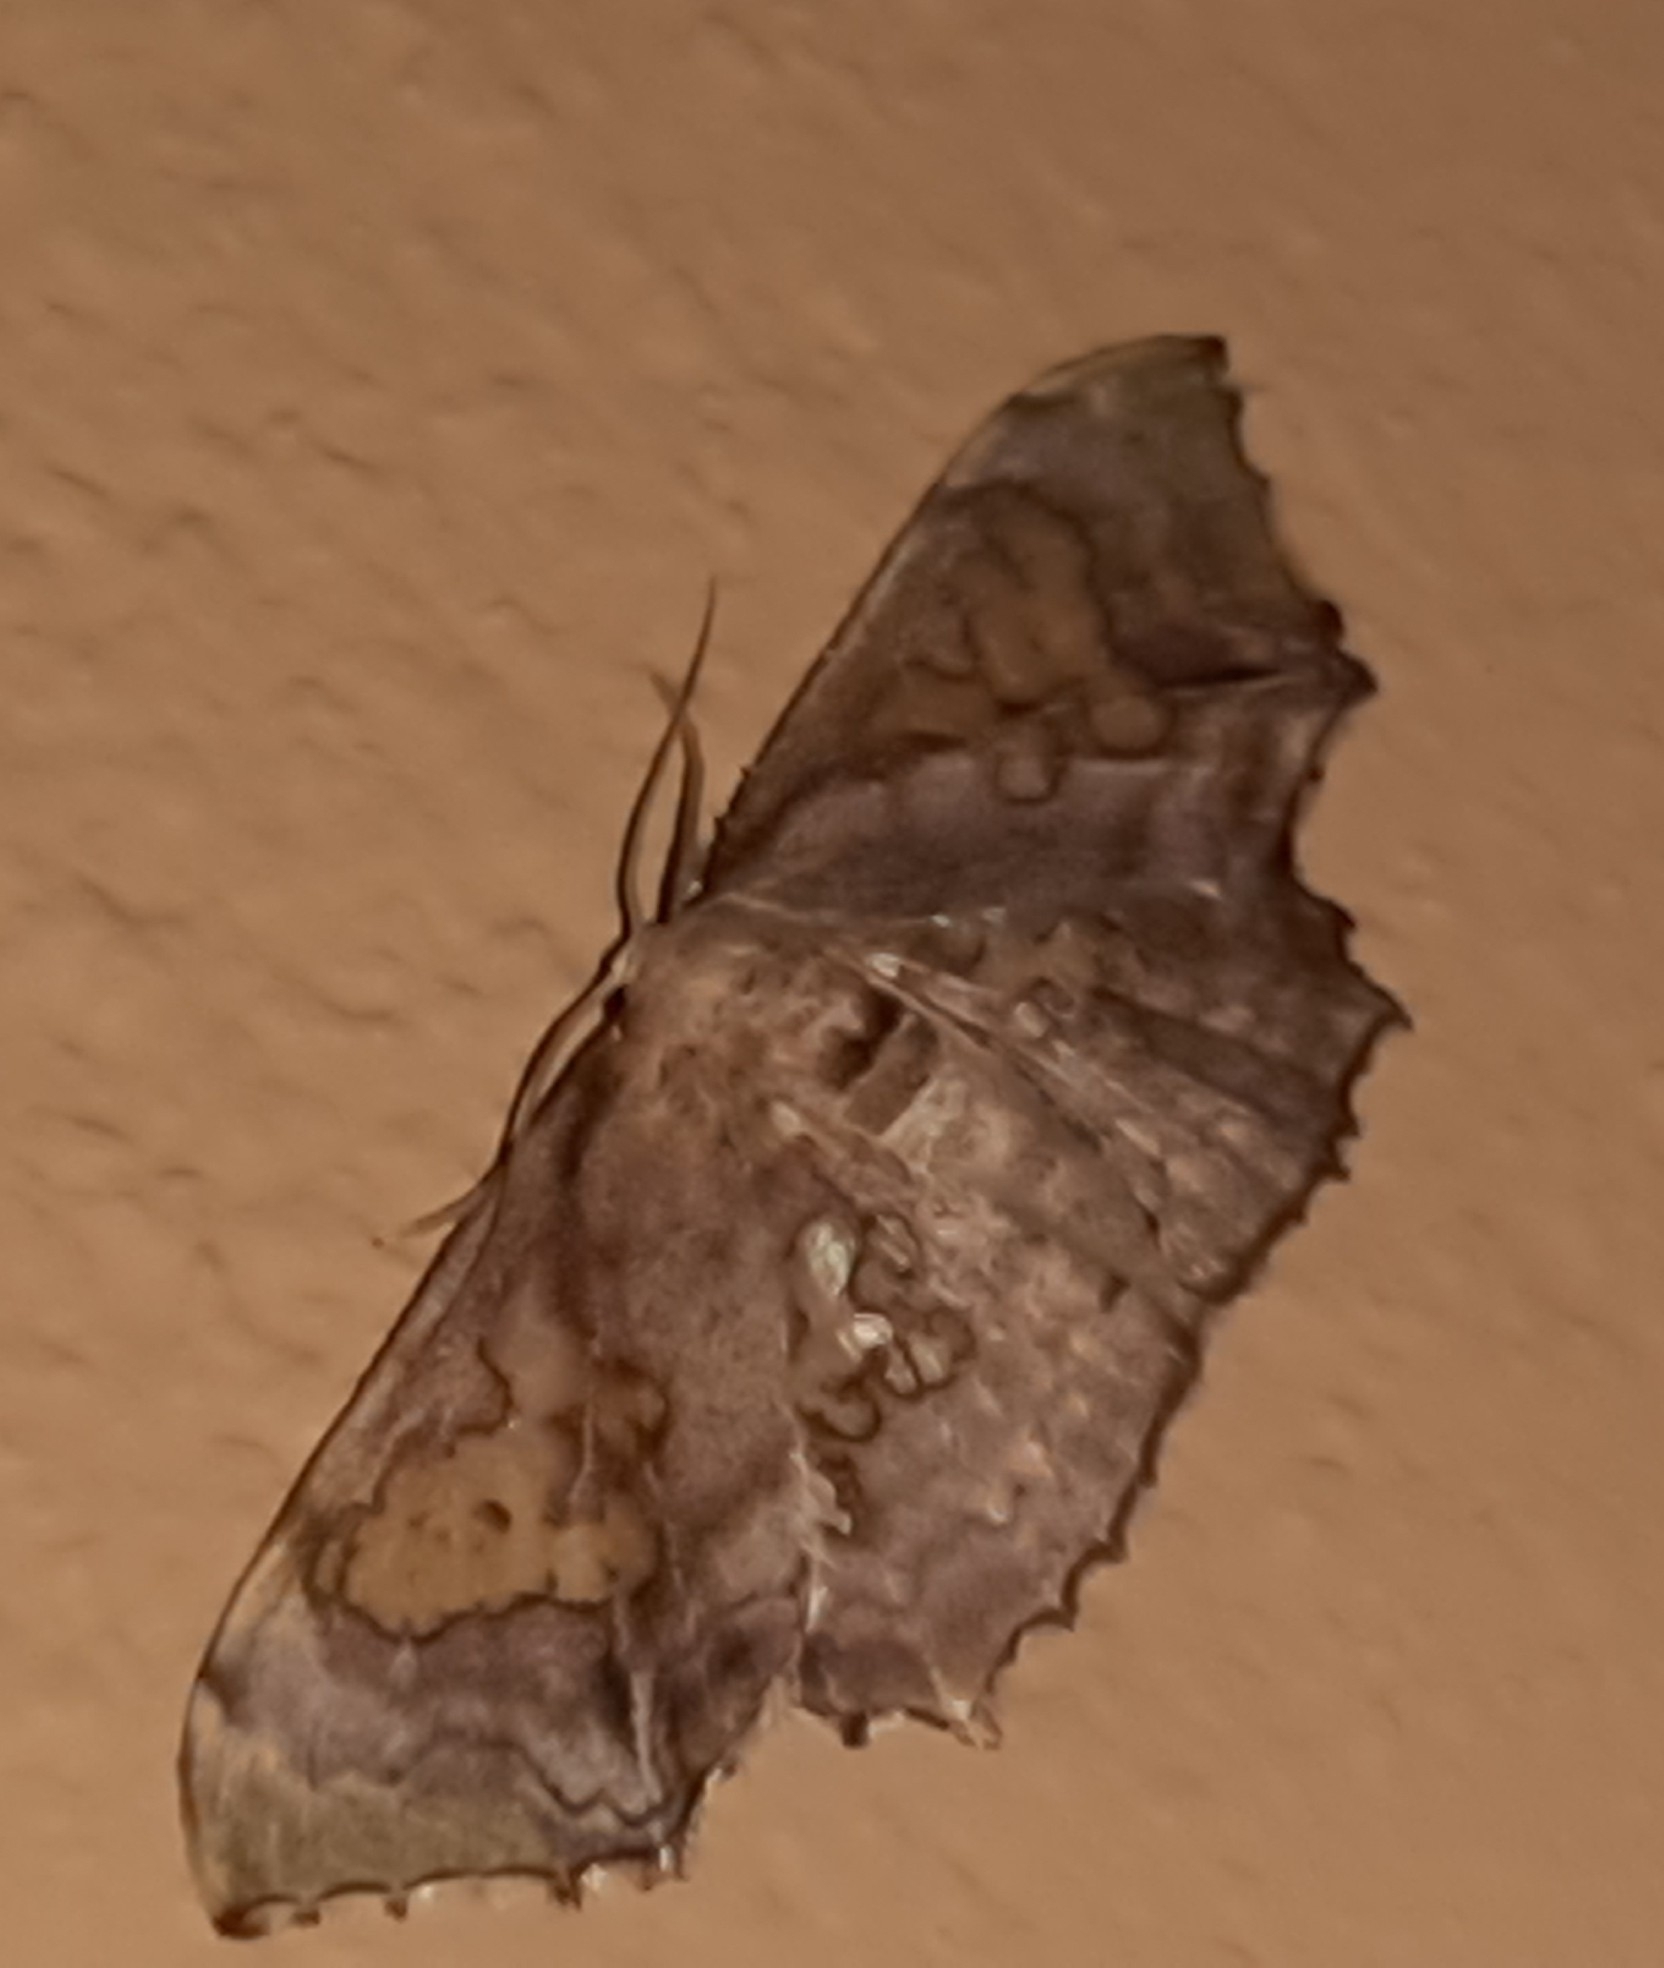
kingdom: Animalia
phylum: Arthropoda
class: Insecta
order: Lepidoptera
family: Geometridae
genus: Pseudasellodes
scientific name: Pseudasellodes fenestraria
